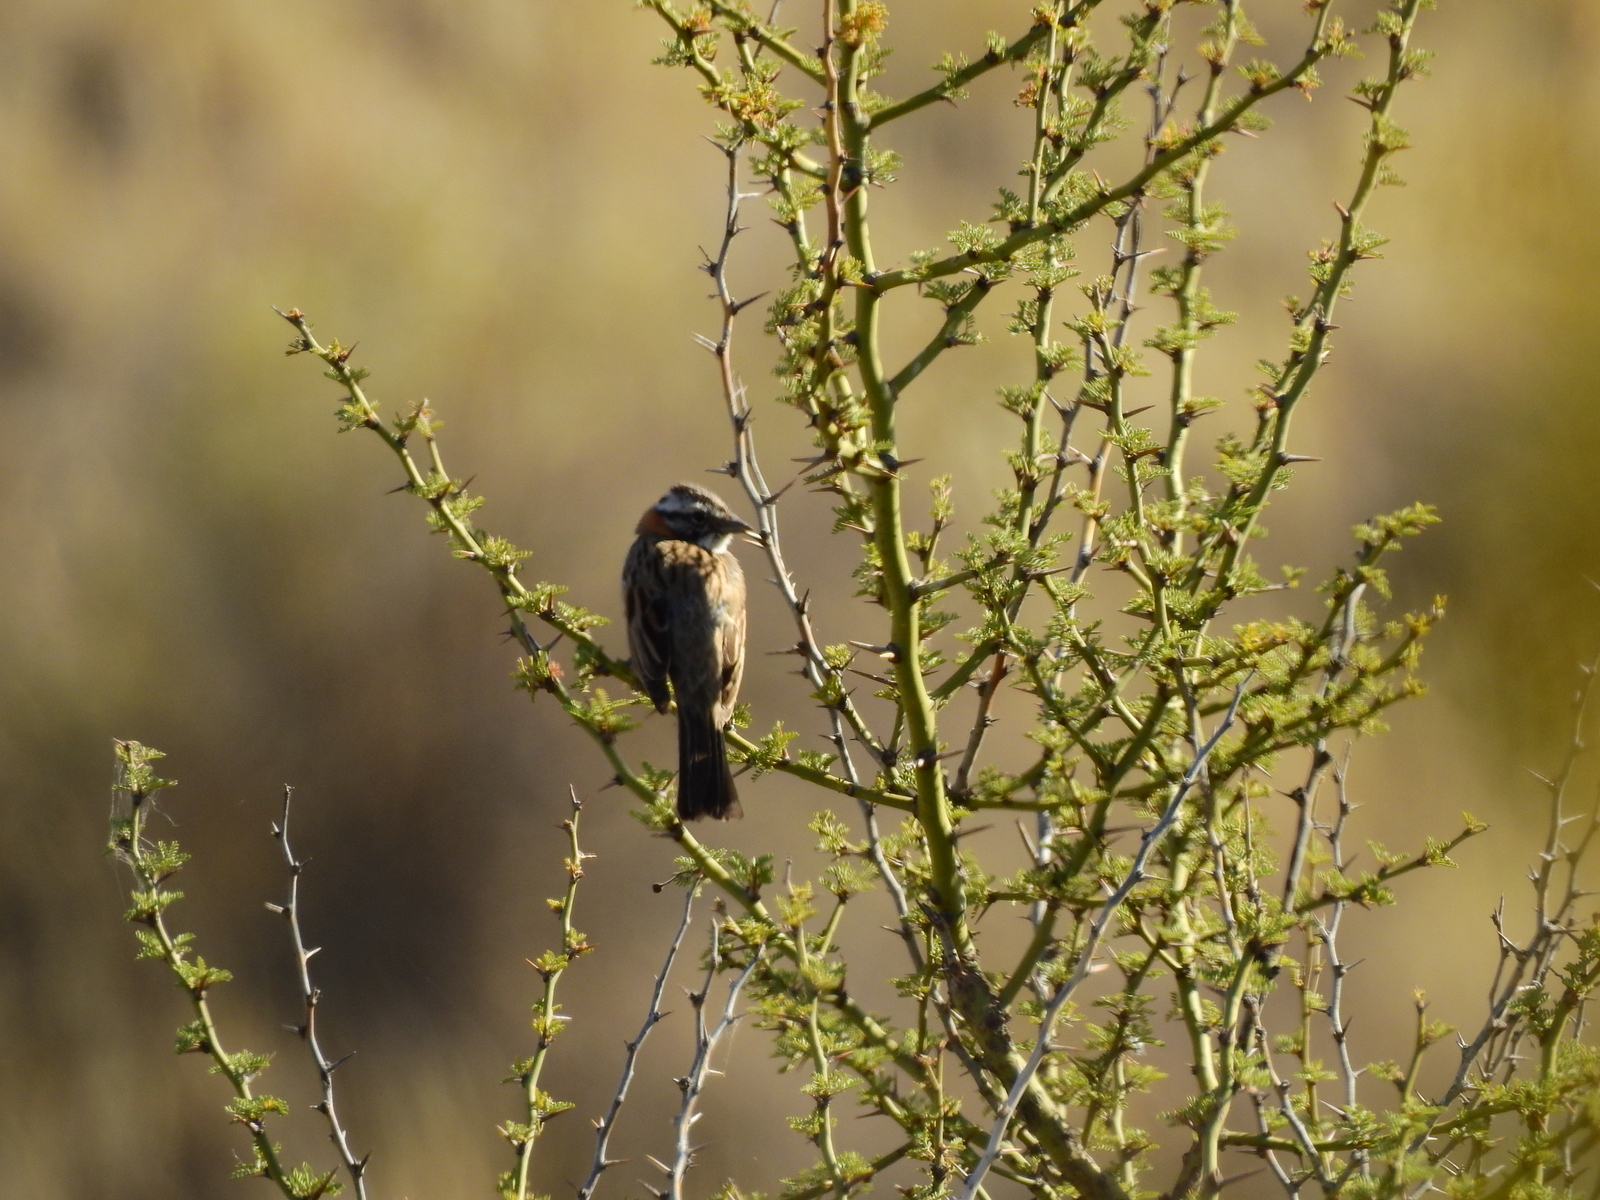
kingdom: Animalia
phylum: Chordata
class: Aves
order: Passeriformes
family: Passerellidae
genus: Zonotrichia
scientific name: Zonotrichia capensis
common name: Rufous-collared sparrow
